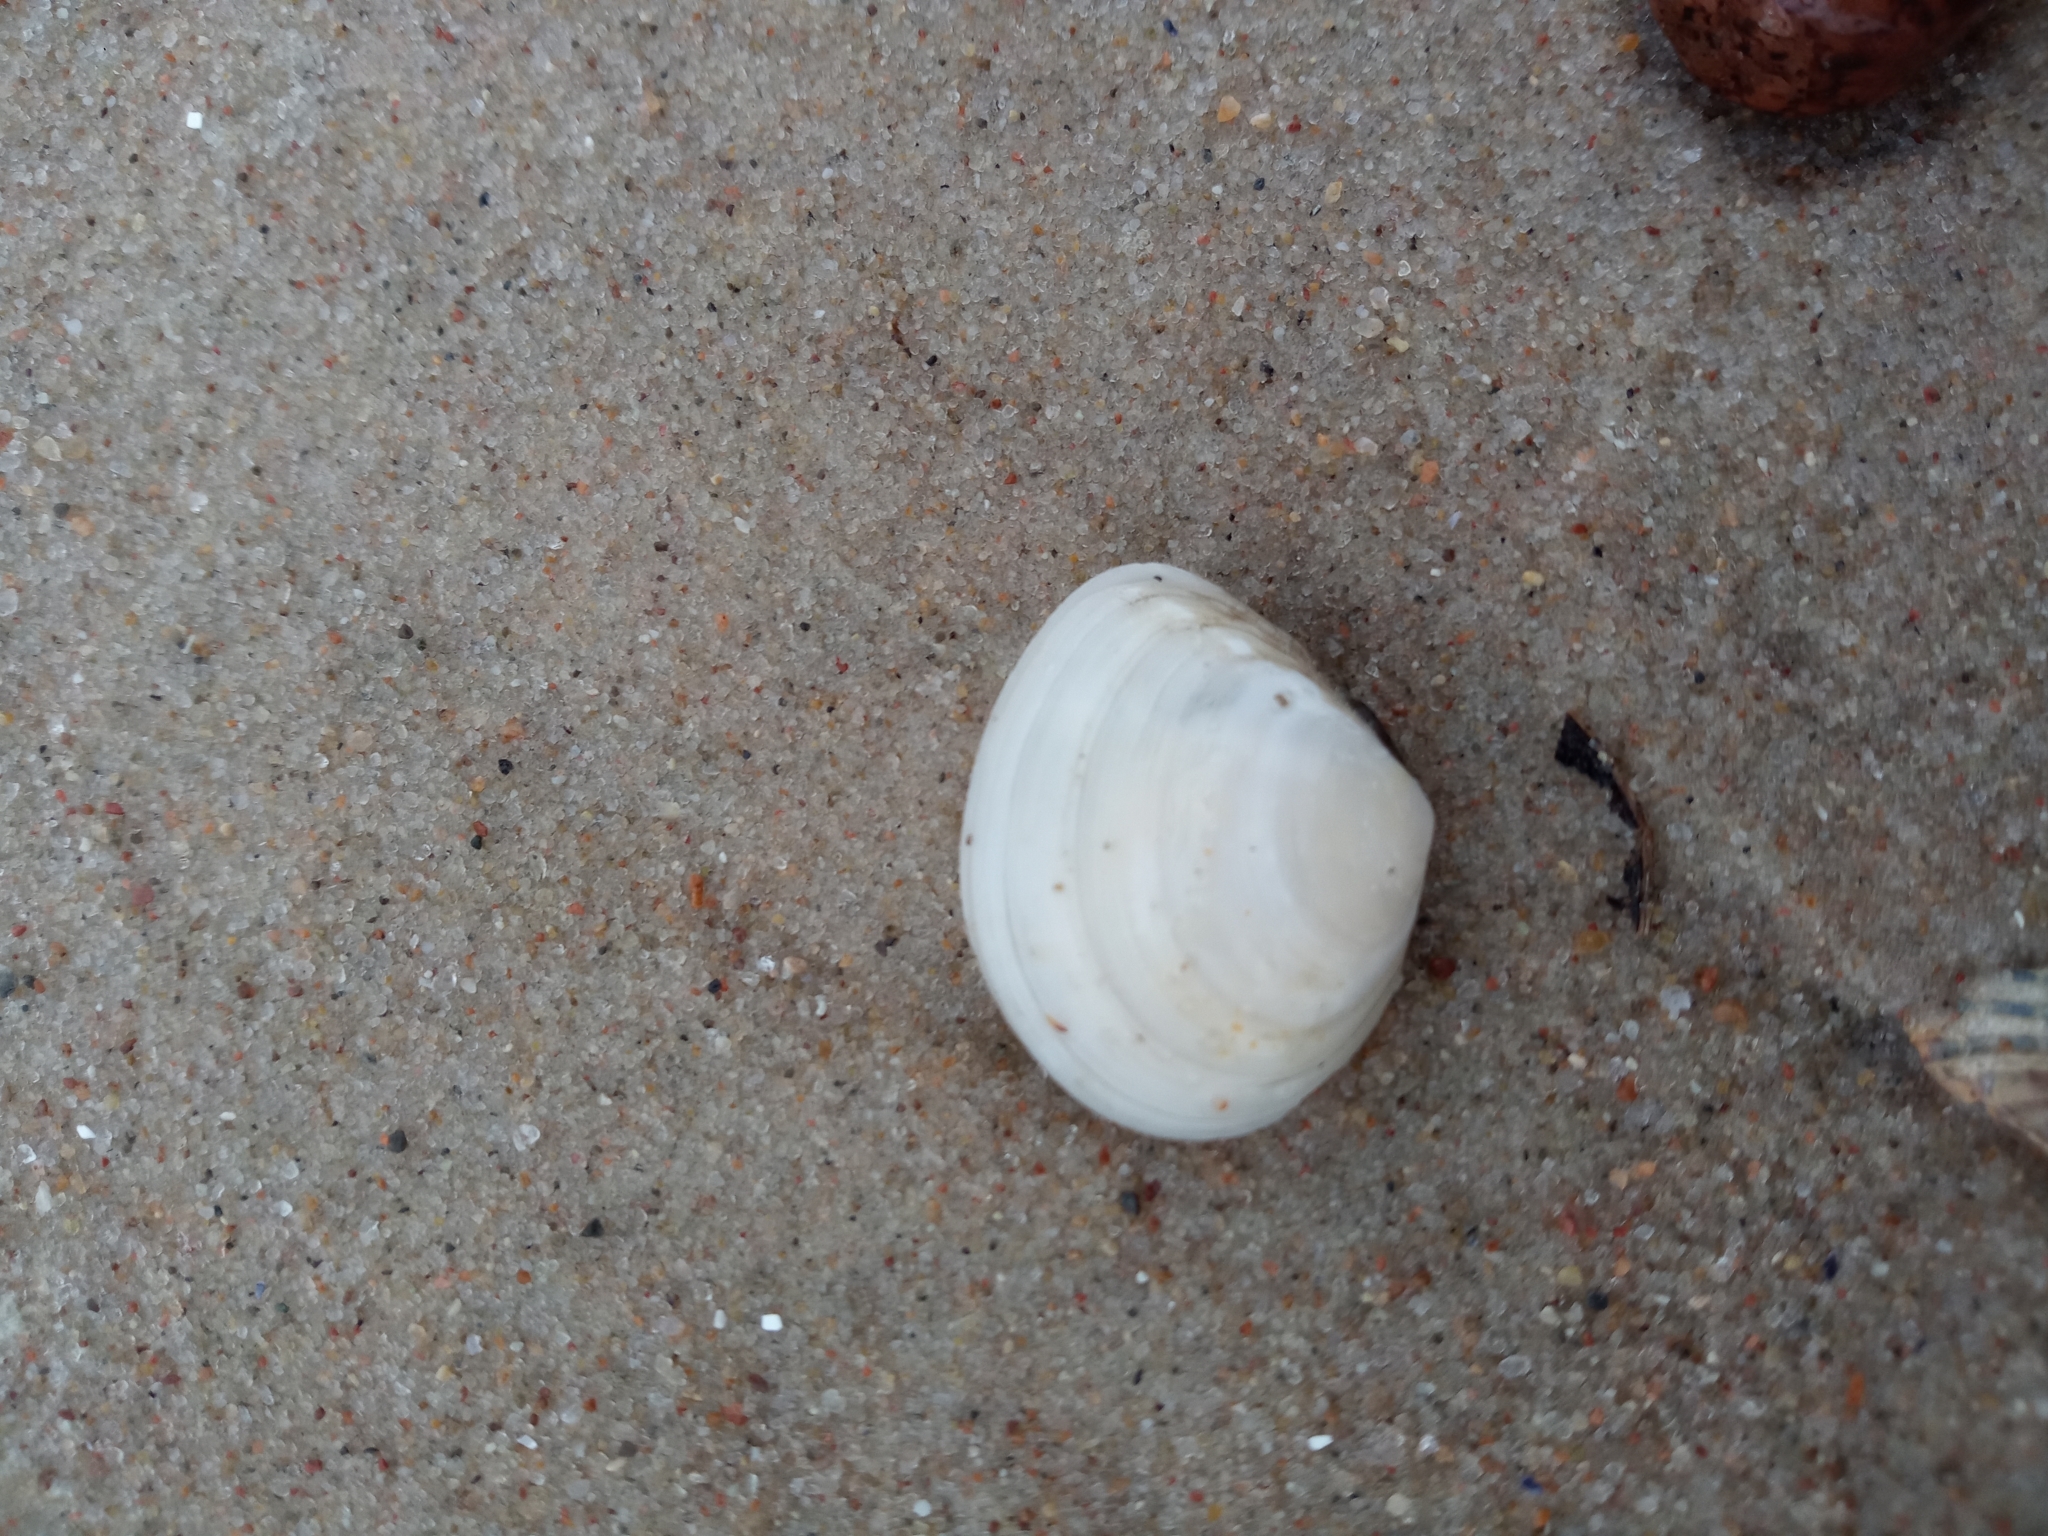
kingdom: Animalia
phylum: Mollusca
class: Bivalvia
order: Cardiida
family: Tellinidae
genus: Macoma
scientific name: Macoma balthica
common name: Baltic tellin
